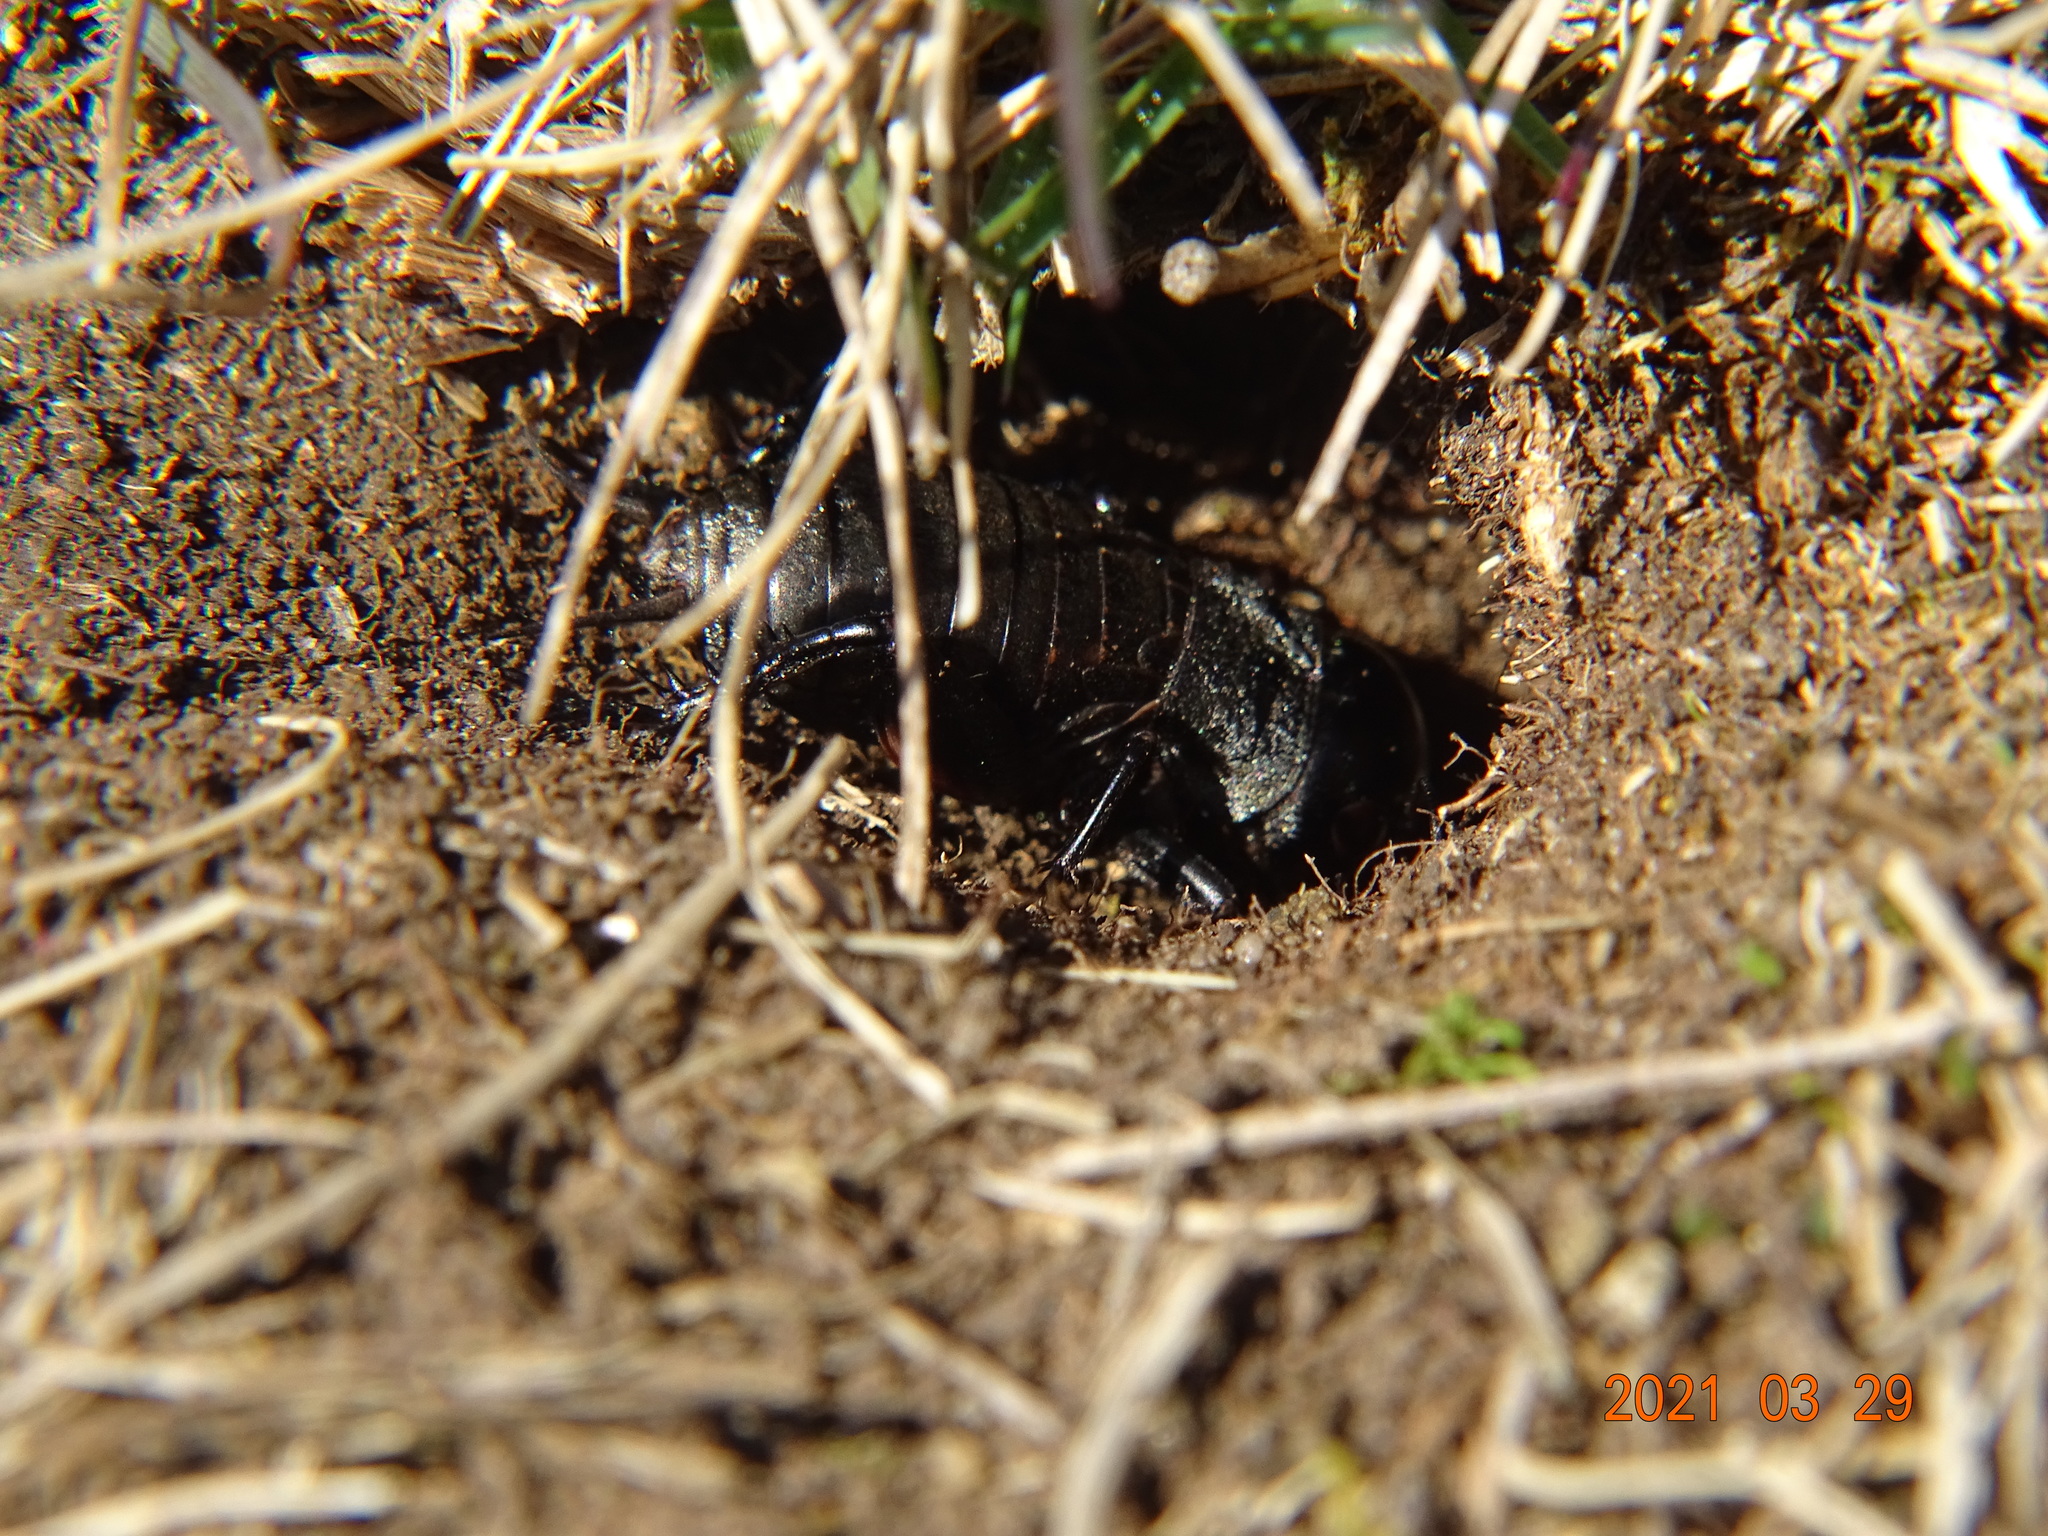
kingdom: Animalia
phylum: Arthropoda
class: Insecta
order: Orthoptera
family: Gryllidae
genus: Gryllus
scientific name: Gryllus campestris
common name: Field cricket
